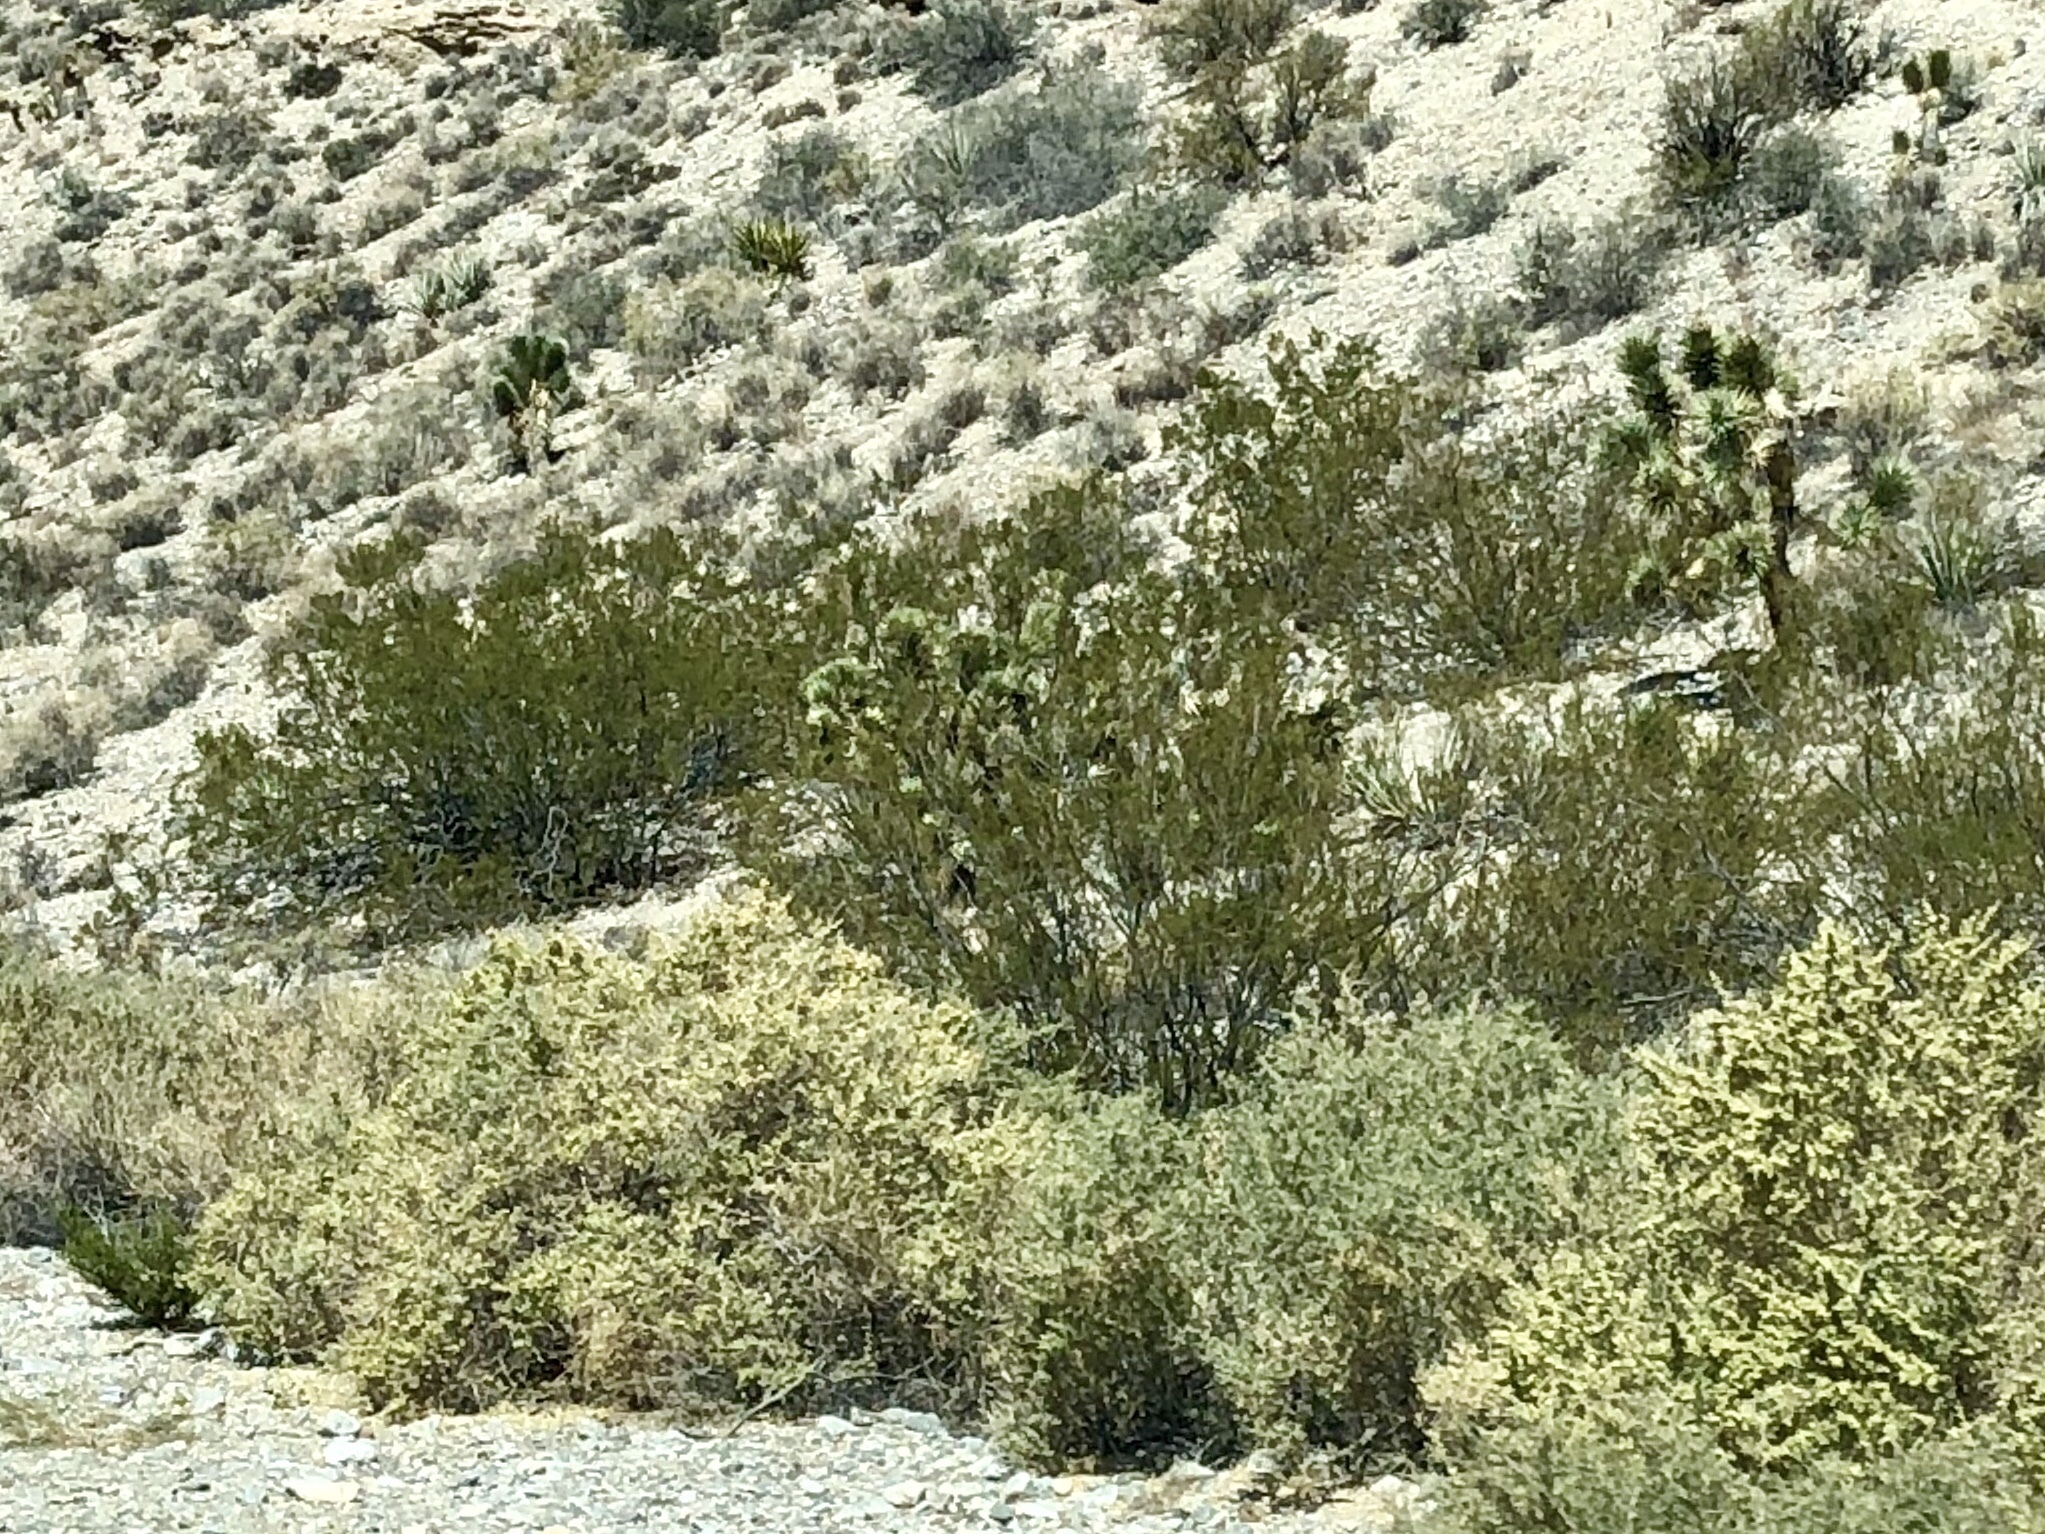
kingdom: Plantae
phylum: Tracheophyta
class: Magnoliopsida
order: Zygophyllales
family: Zygophyllaceae
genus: Larrea
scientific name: Larrea tridentata
